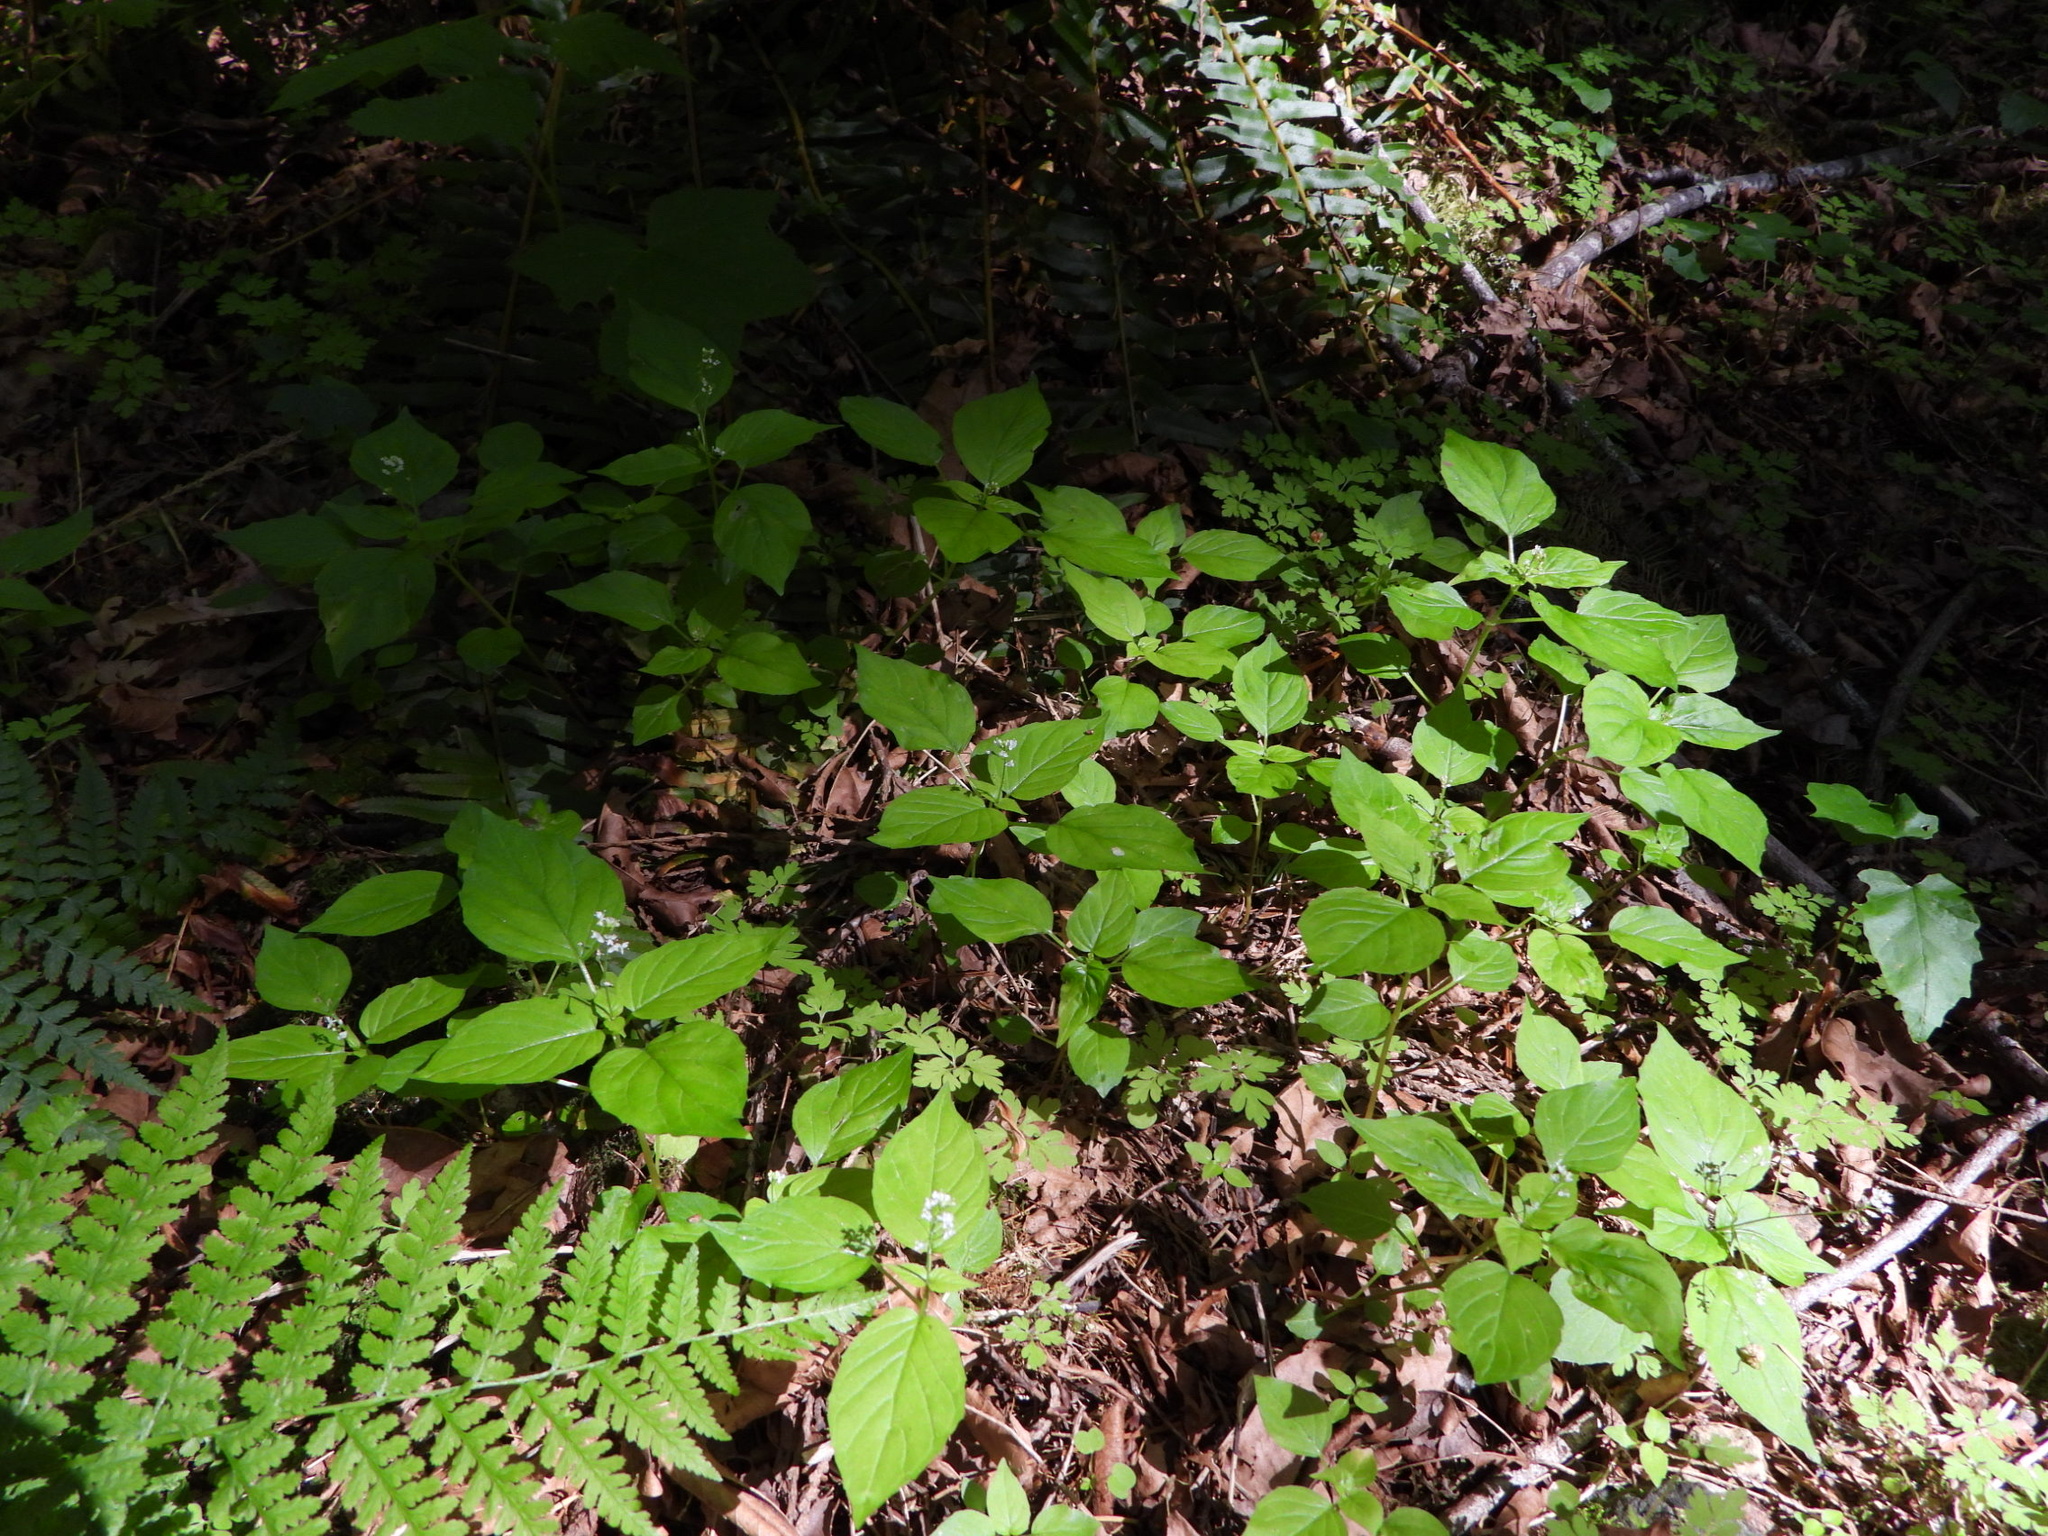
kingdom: Plantae
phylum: Tracheophyta
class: Magnoliopsida
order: Myrtales
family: Onagraceae
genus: Circaea
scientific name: Circaea alpina
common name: Alpine enchanter's-nightshade
